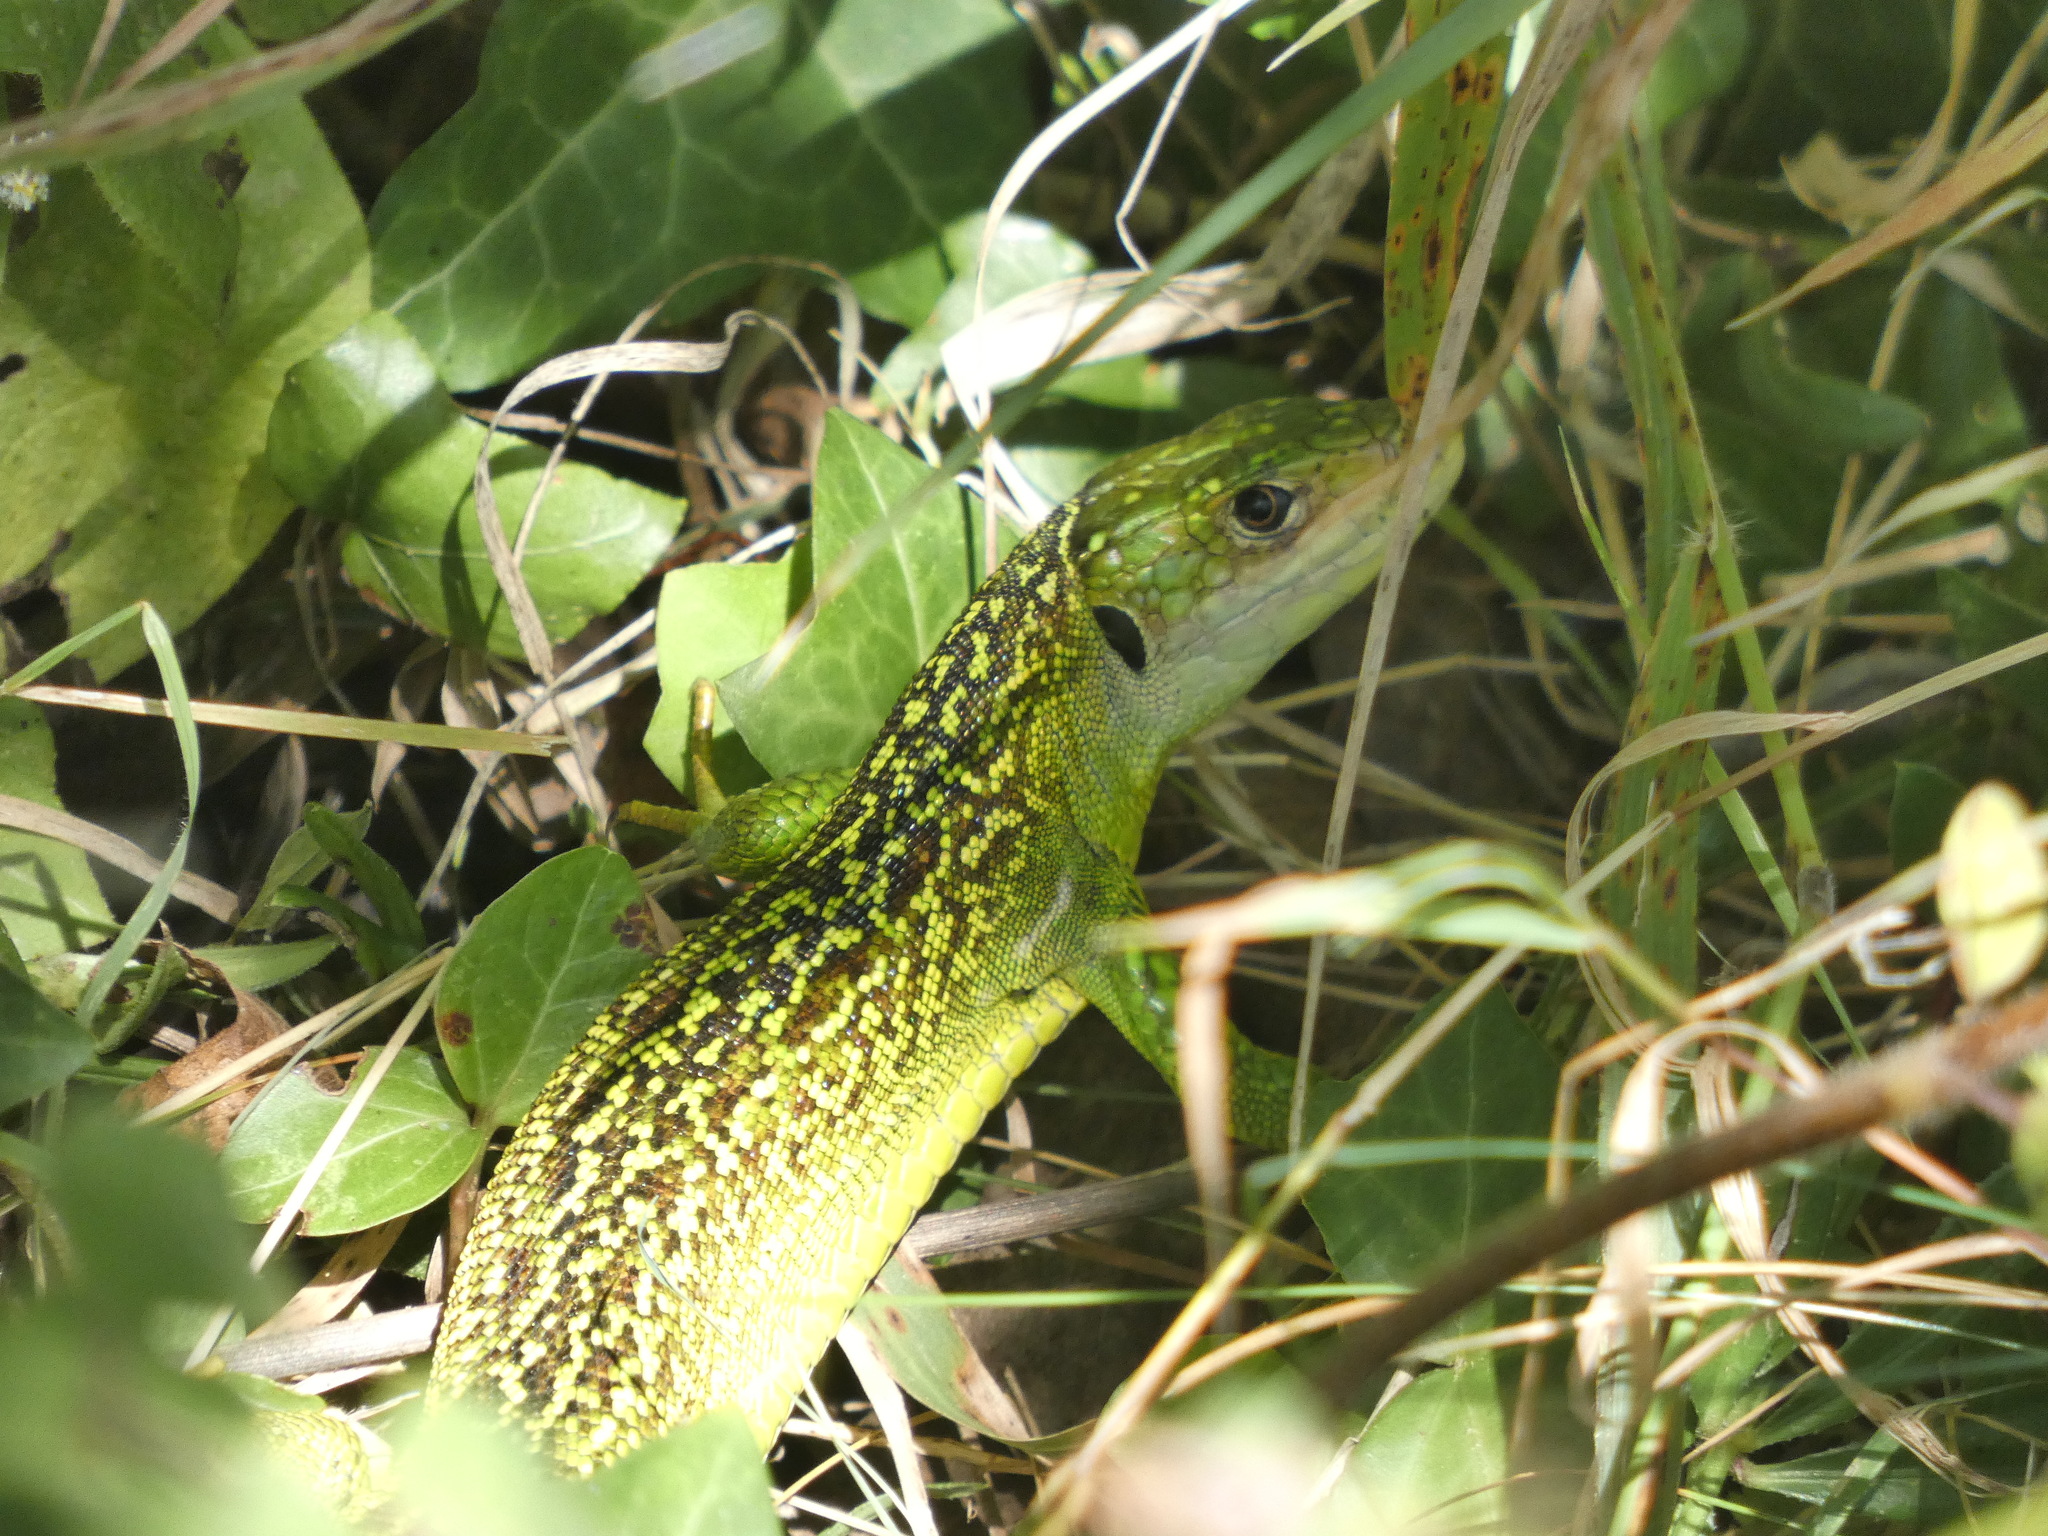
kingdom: Animalia
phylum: Chordata
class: Squamata
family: Lacertidae
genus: Lacerta
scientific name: Lacerta bilineata
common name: Western green lizard
